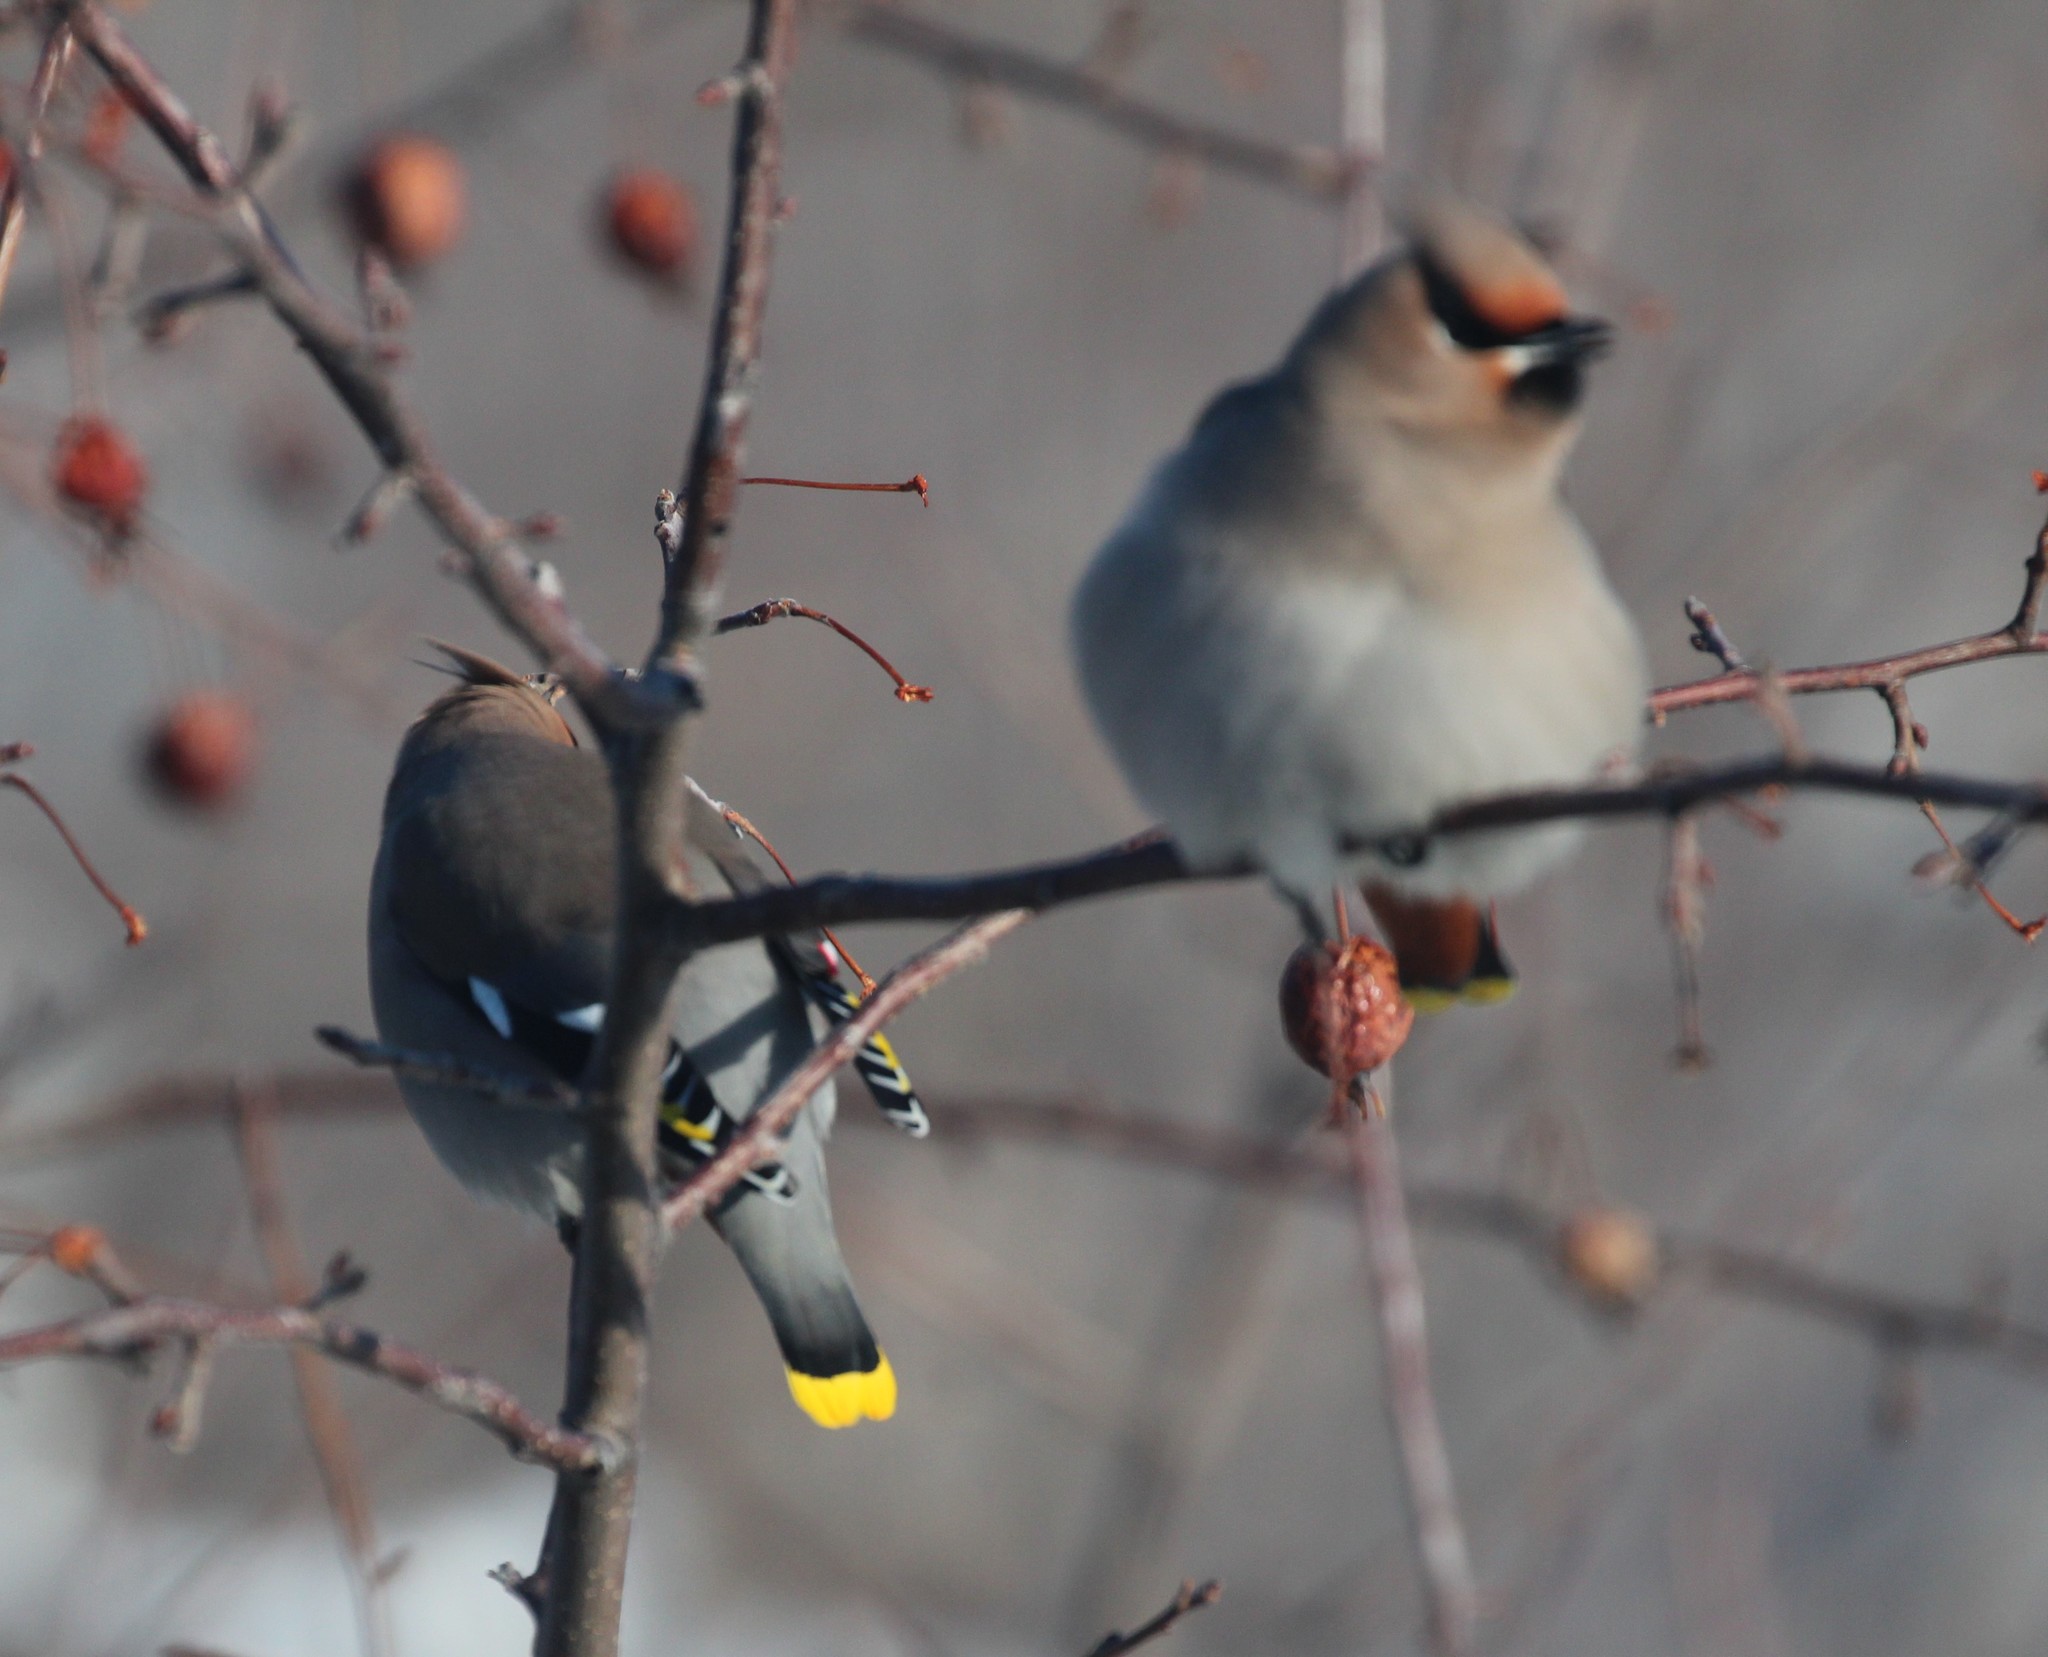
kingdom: Animalia
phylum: Chordata
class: Aves
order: Passeriformes
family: Bombycillidae
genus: Bombycilla
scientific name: Bombycilla garrulus
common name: Bohemian waxwing
